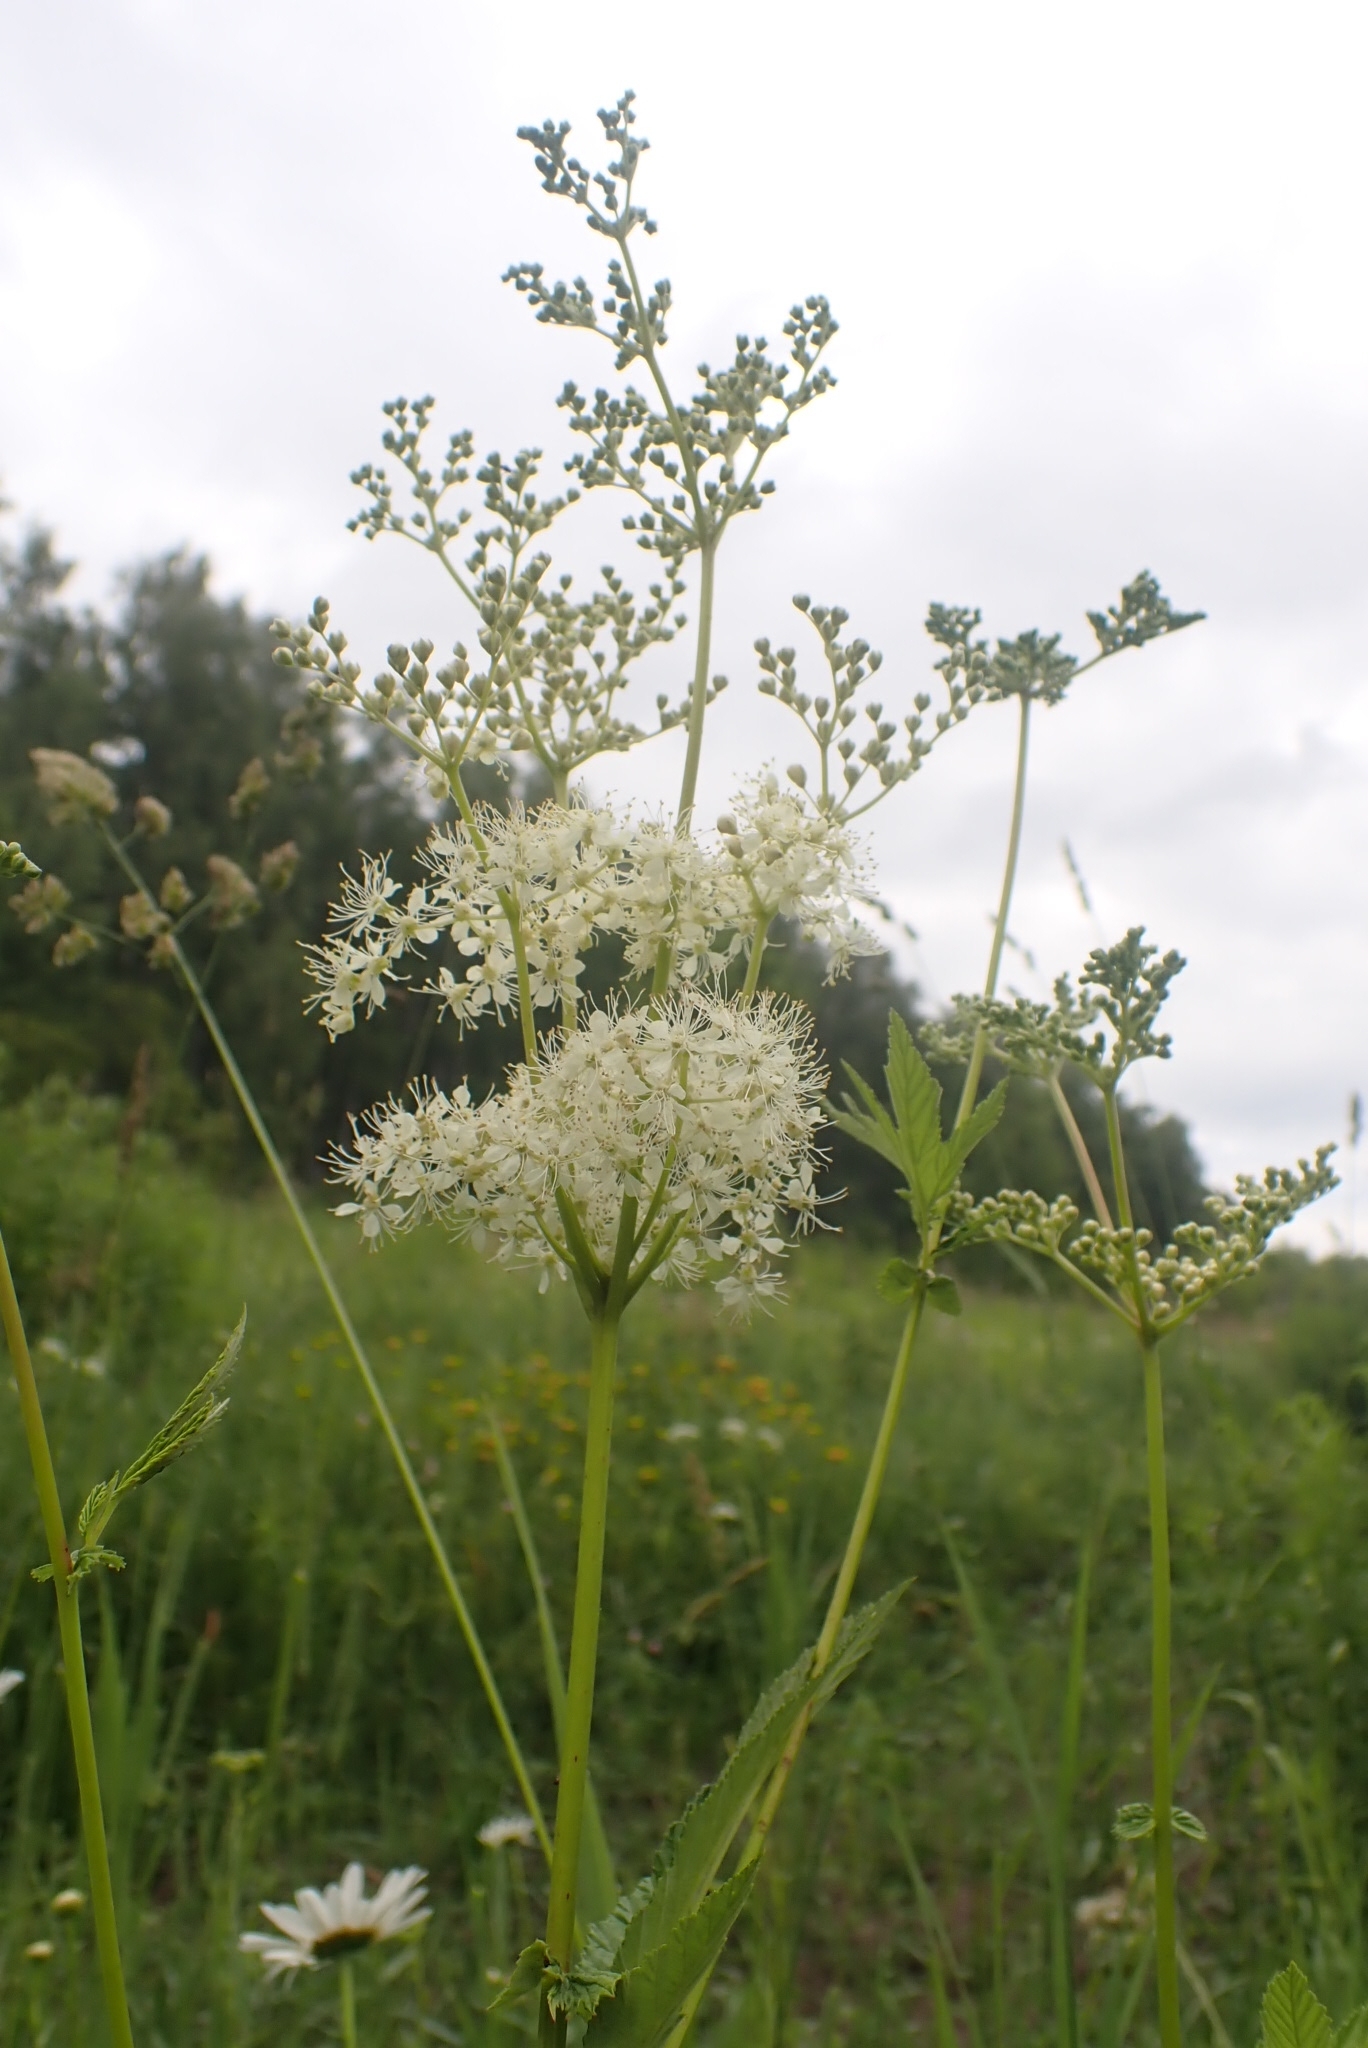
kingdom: Plantae
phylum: Tracheophyta
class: Magnoliopsida
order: Rosales
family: Rosaceae
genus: Filipendula
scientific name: Filipendula ulmaria
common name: Meadowsweet
